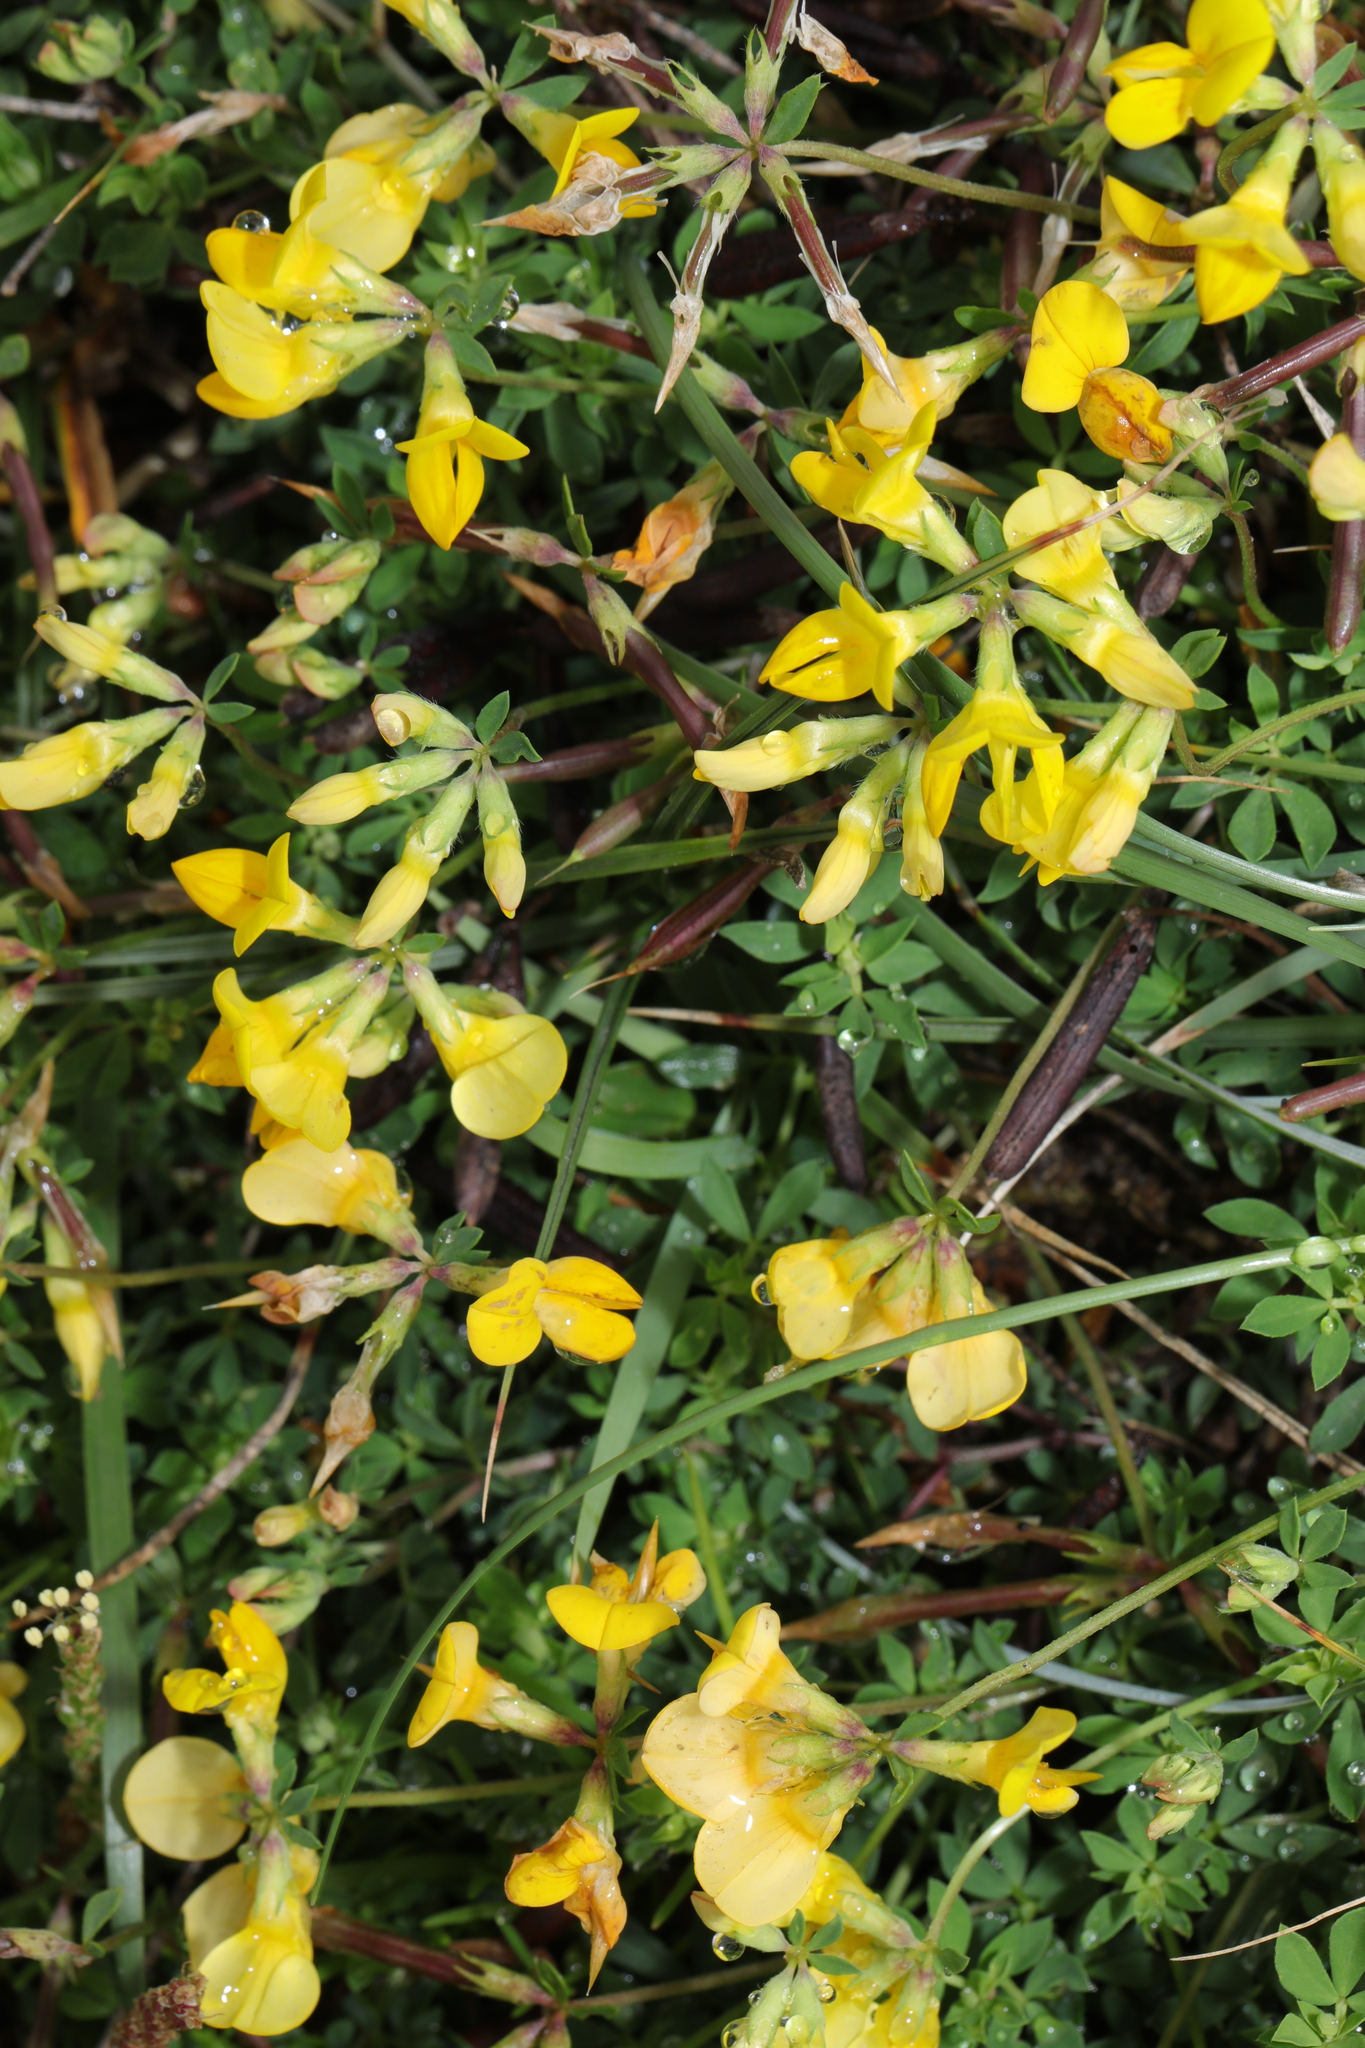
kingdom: Plantae
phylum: Tracheophyta
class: Magnoliopsida
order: Fabales
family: Fabaceae
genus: Lotus
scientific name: Lotus corniculatus
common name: Common bird's-foot-trefoil
